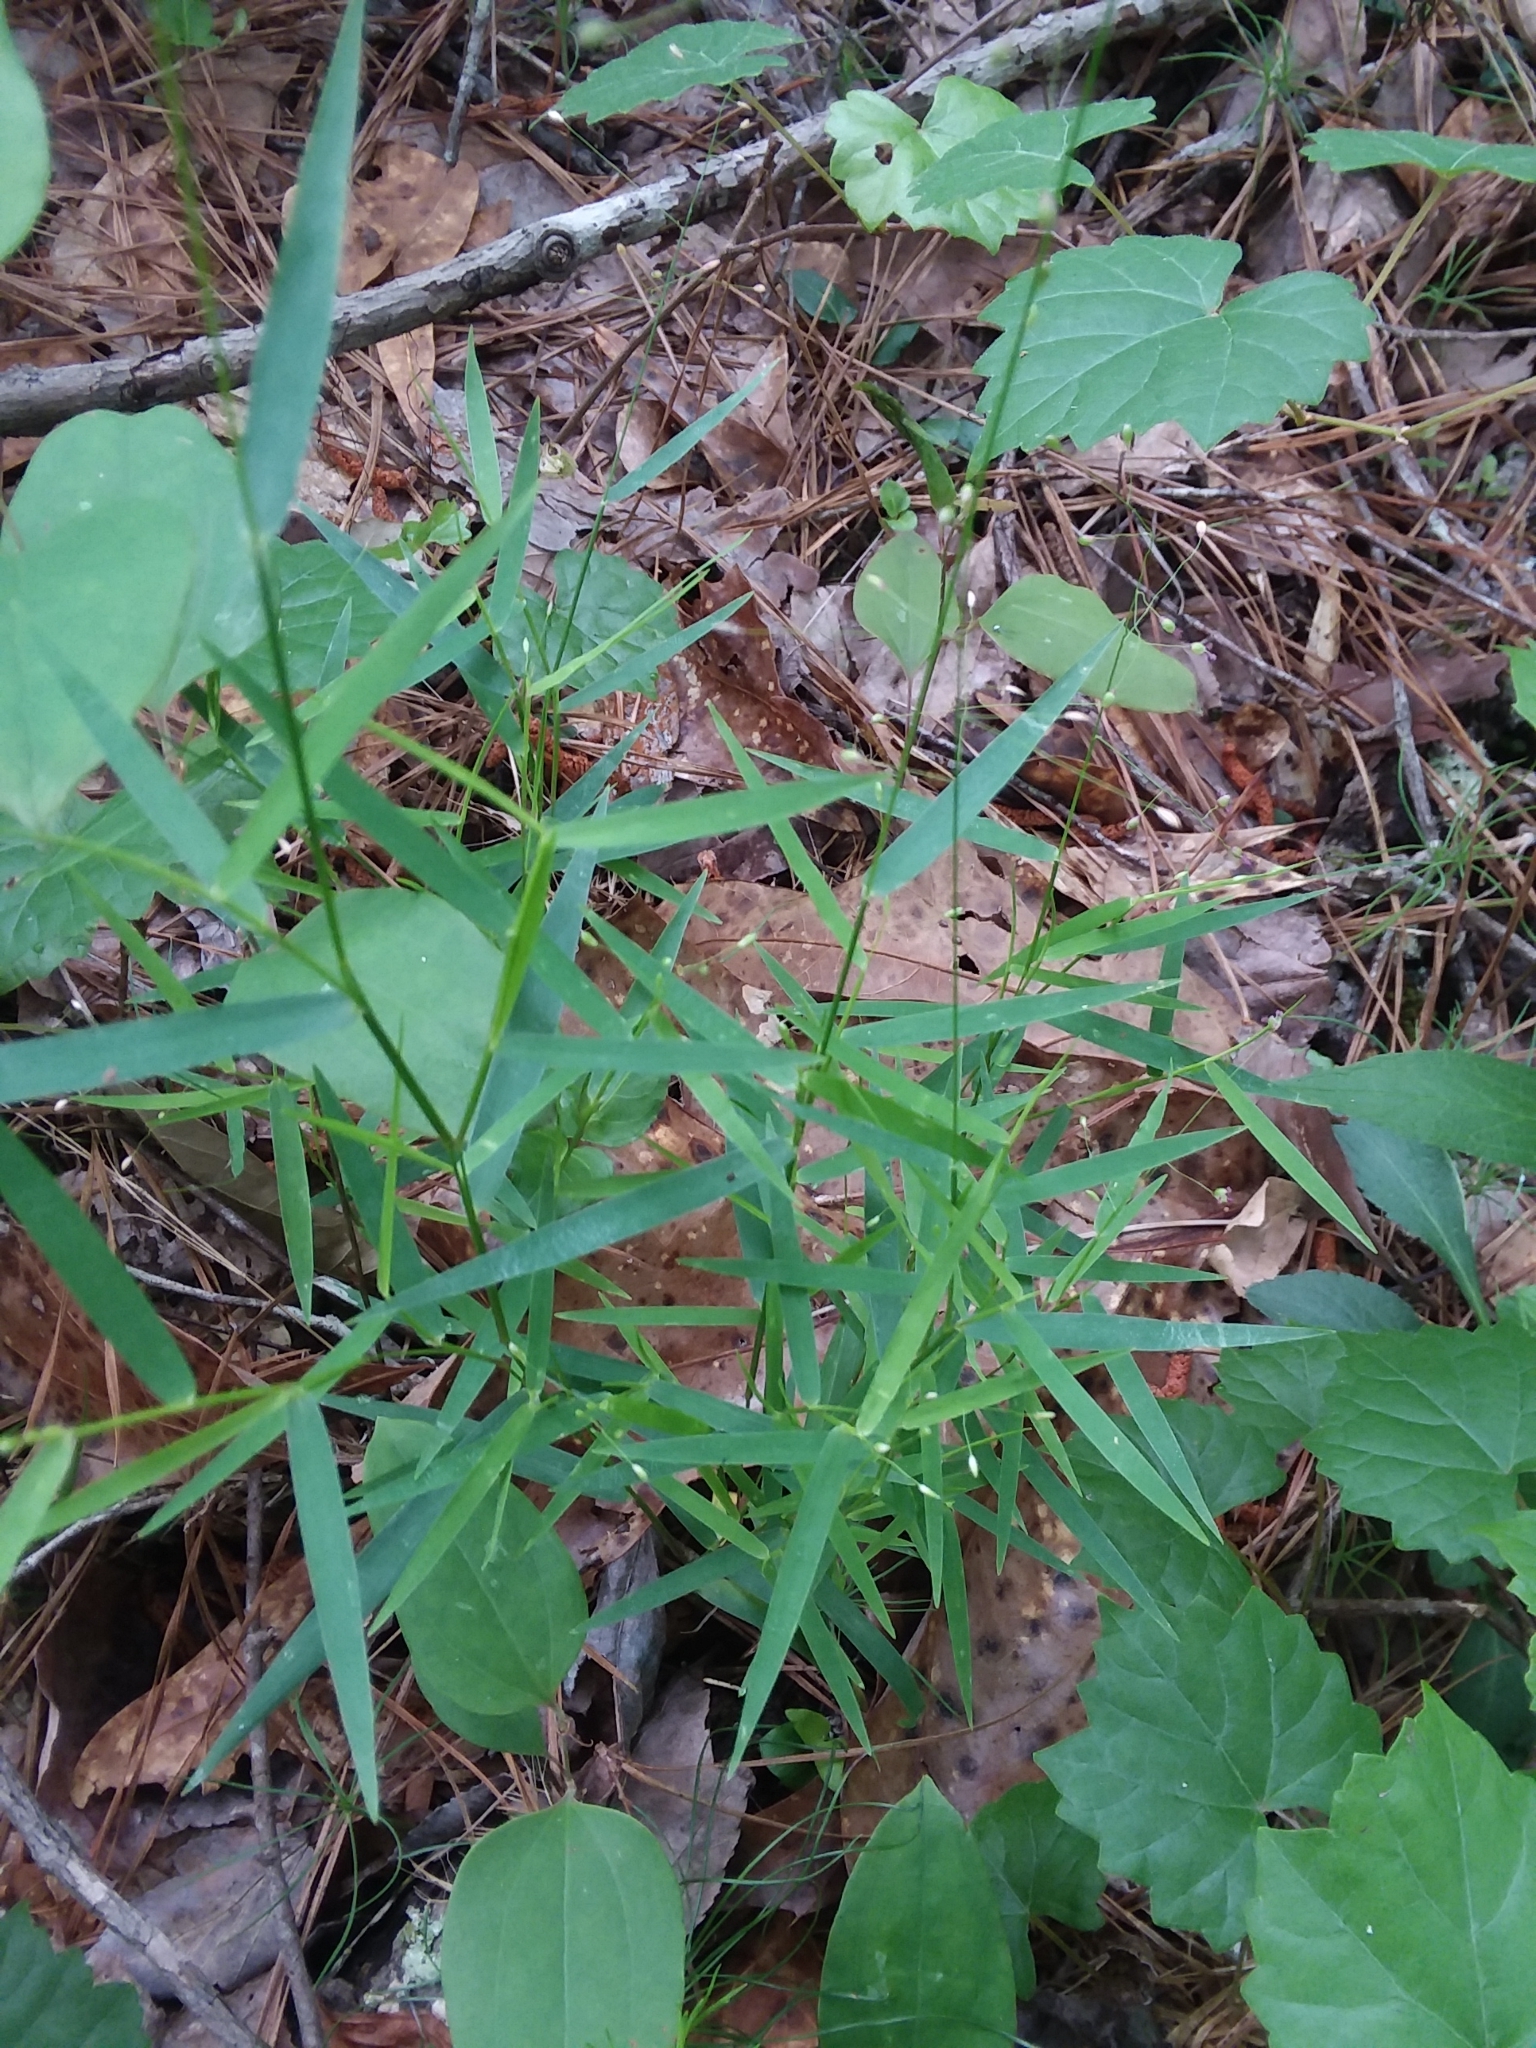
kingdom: Plantae
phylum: Tracheophyta
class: Liliopsida
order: Poales
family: Poaceae
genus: Dichanthelium
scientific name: Dichanthelium dichotomum
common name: Cypress panicgrass
